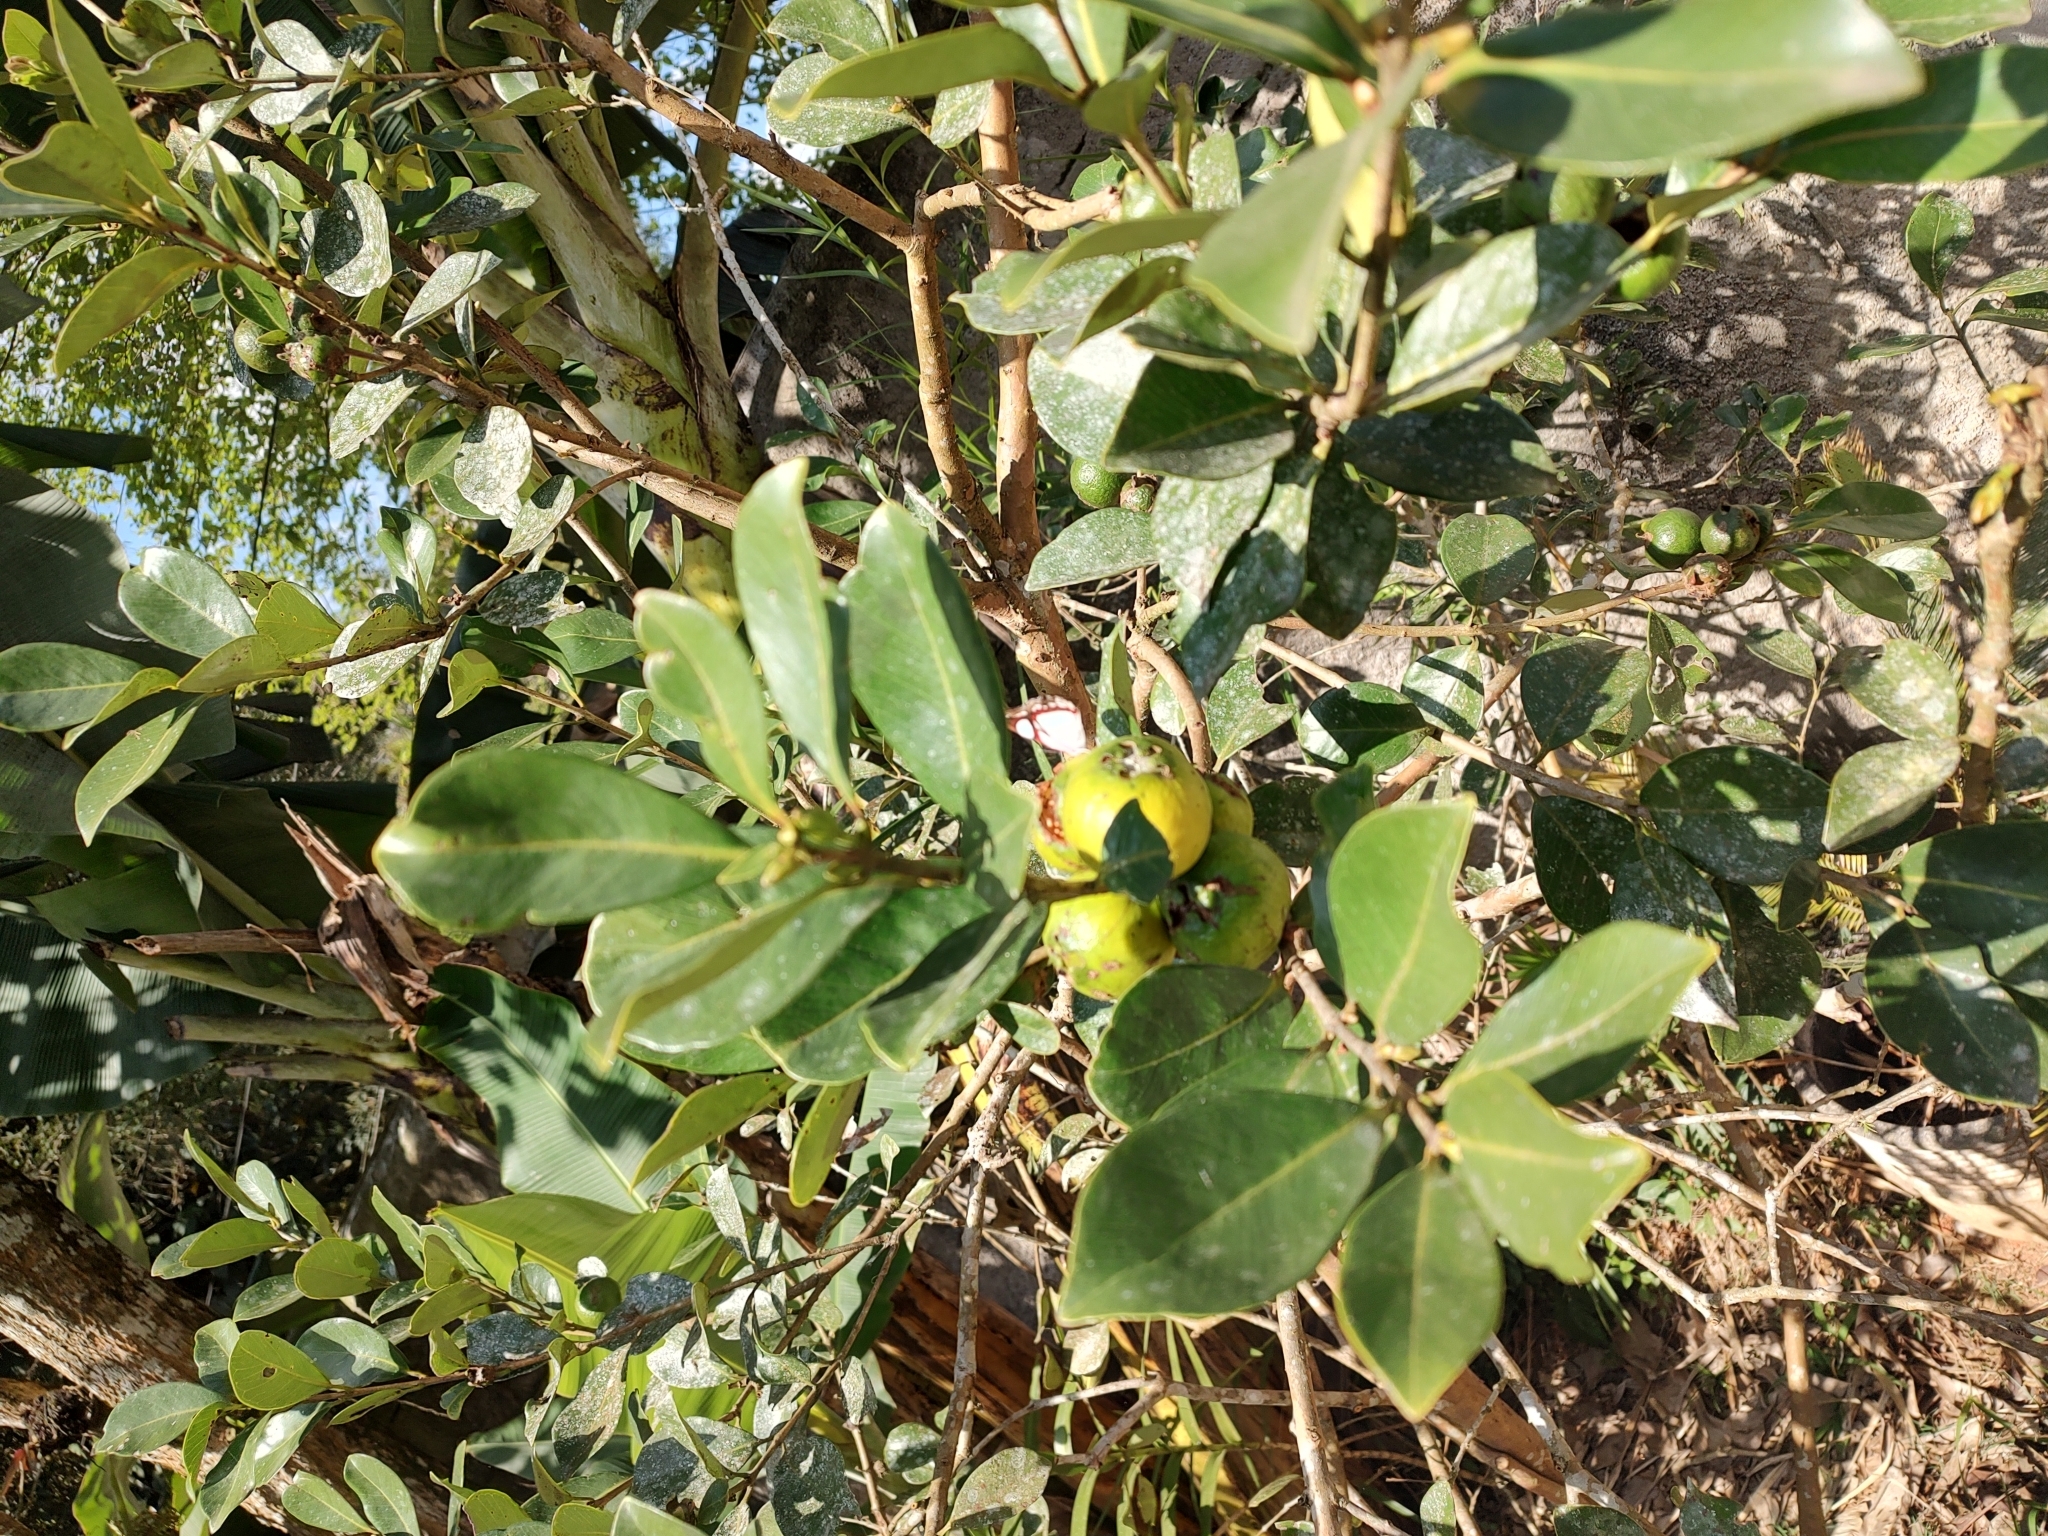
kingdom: Plantae
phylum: Tracheophyta
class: Magnoliopsida
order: Myrtales
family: Myrtaceae
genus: Psidium
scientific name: Psidium cattleianum
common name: Strawberry guava
